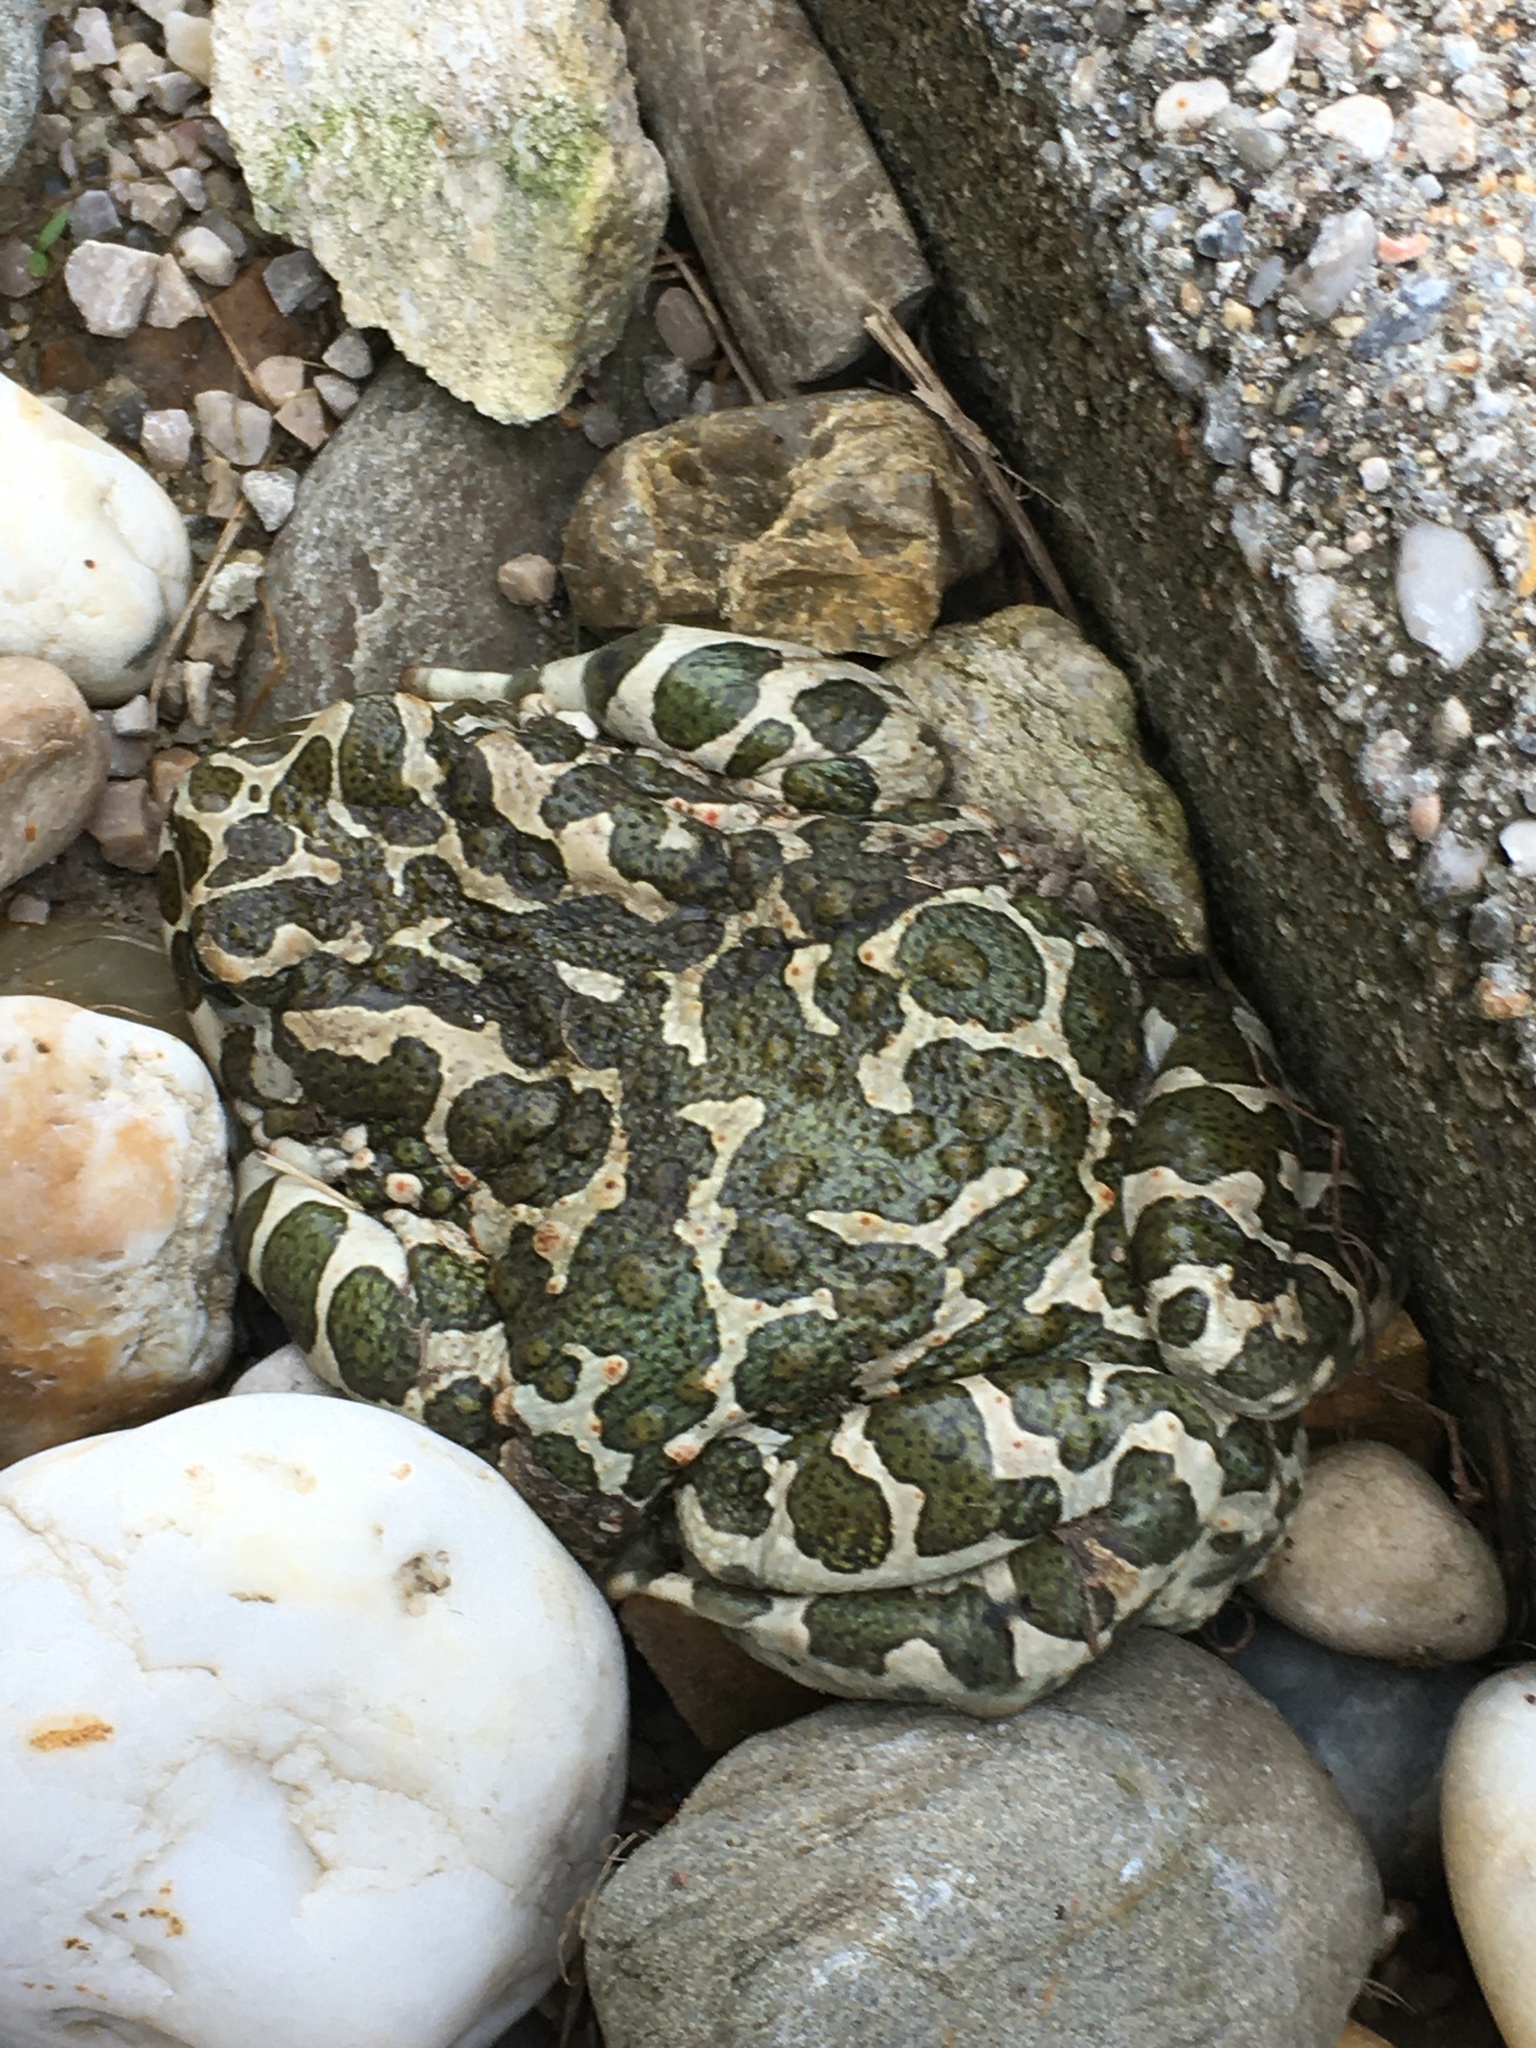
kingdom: Animalia
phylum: Chordata
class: Amphibia
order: Anura
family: Bufonidae
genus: Bufotes
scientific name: Bufotes viridis
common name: European green toad
